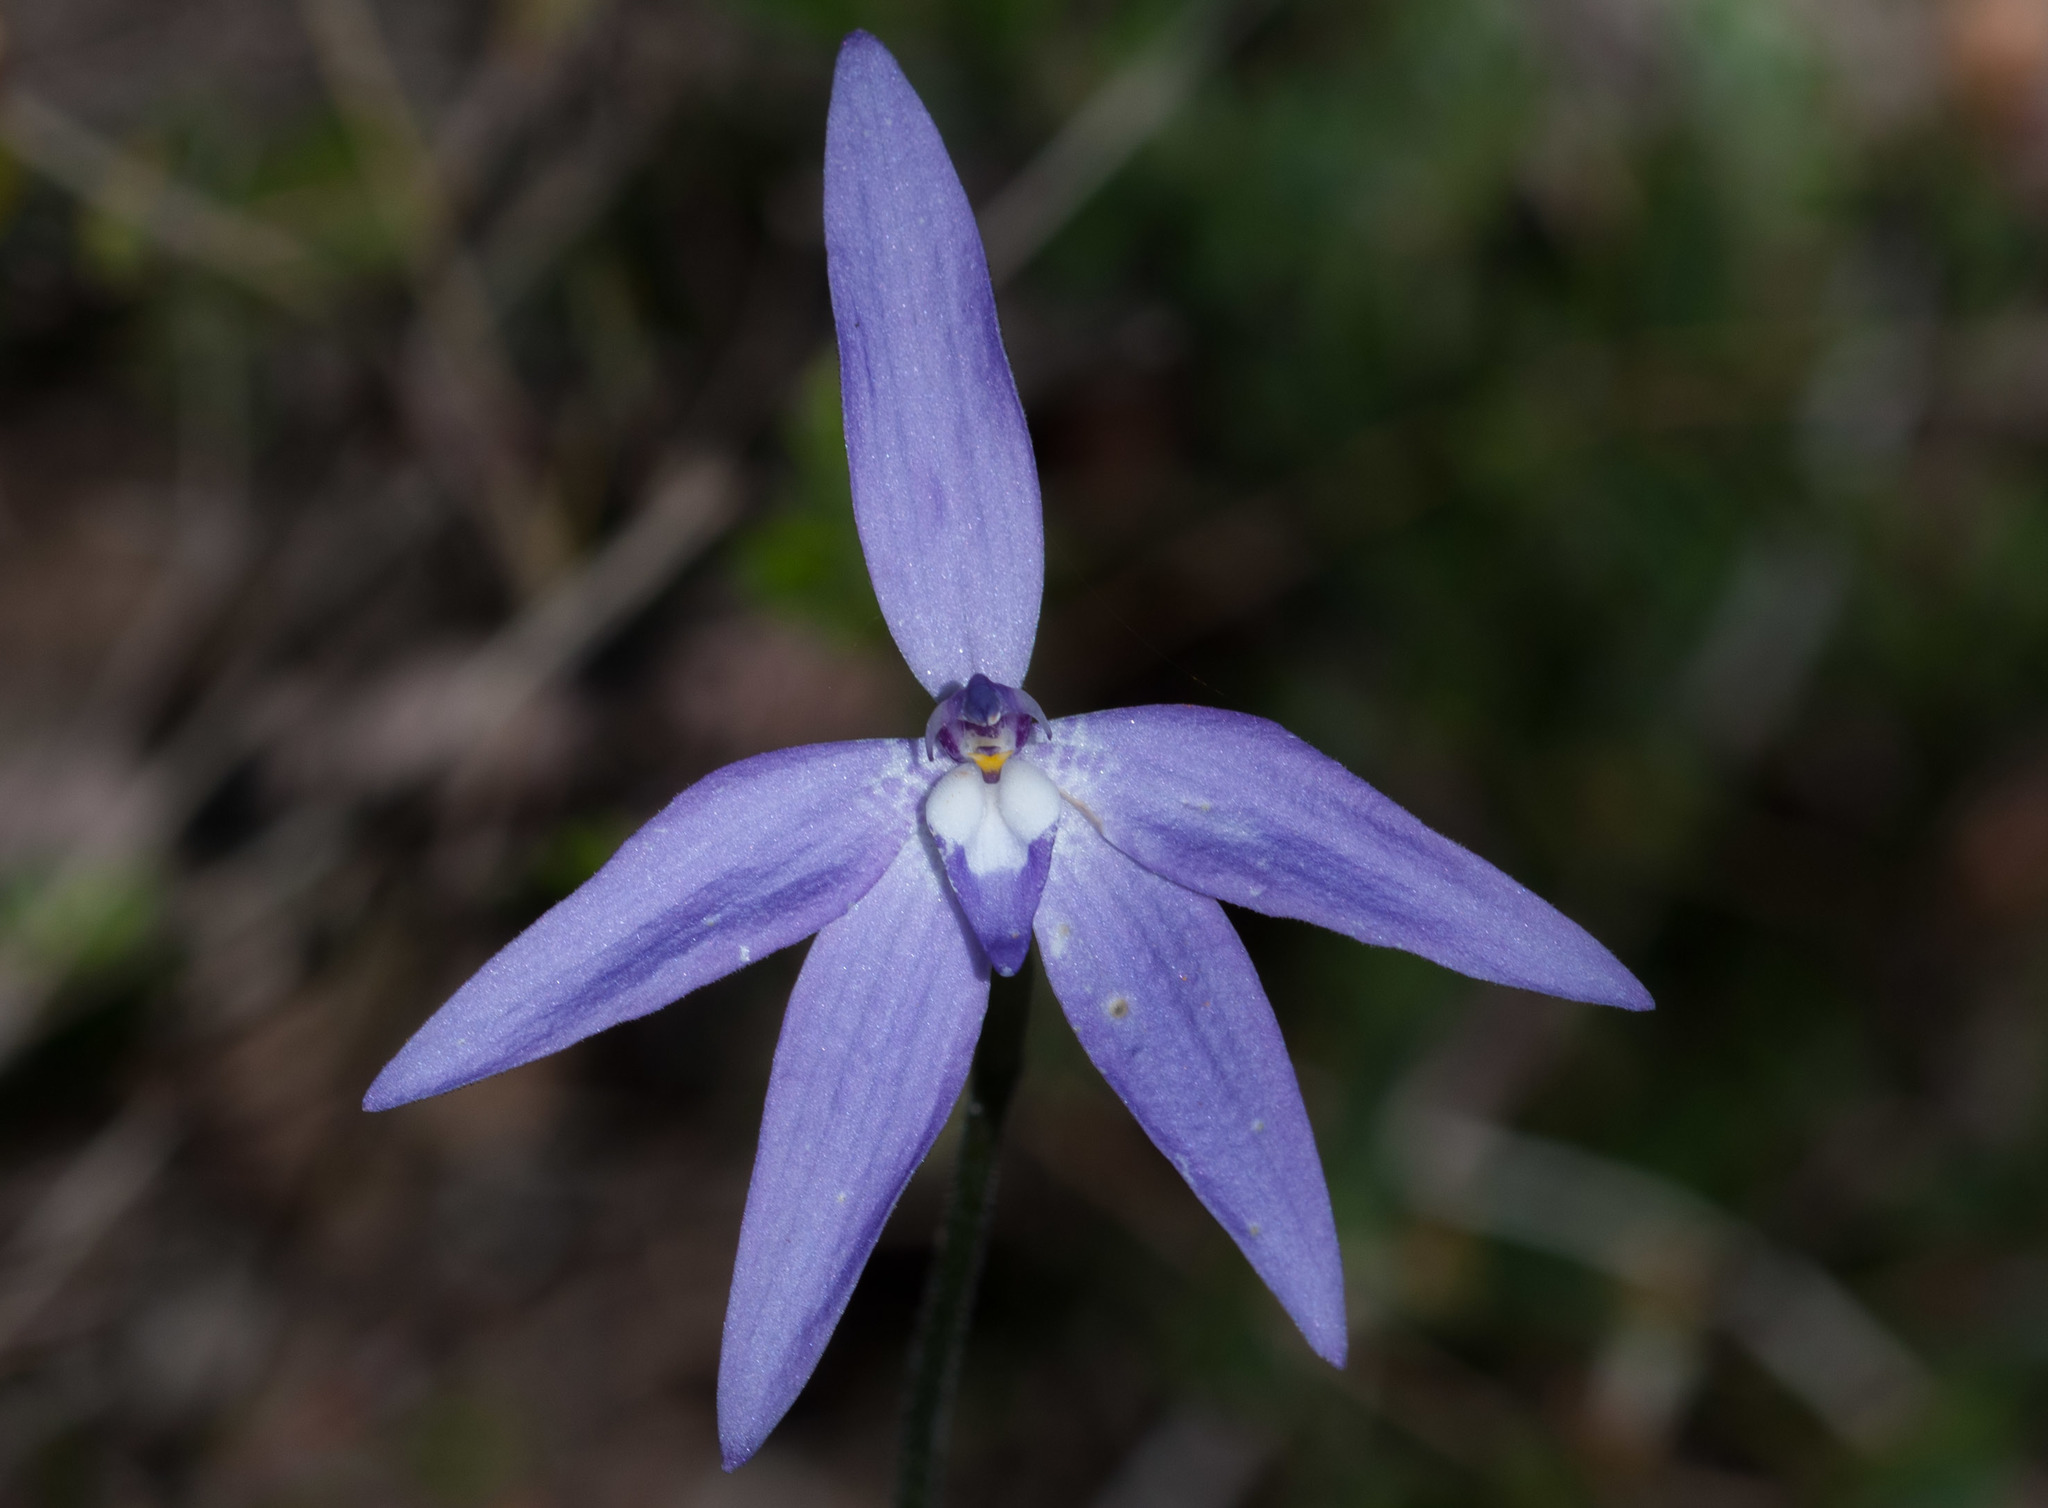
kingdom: Plantae
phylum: Tracheophyta
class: Liliopsida
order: Asparagales
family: Orchidaceae
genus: Caladenia
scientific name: Caladenia major
